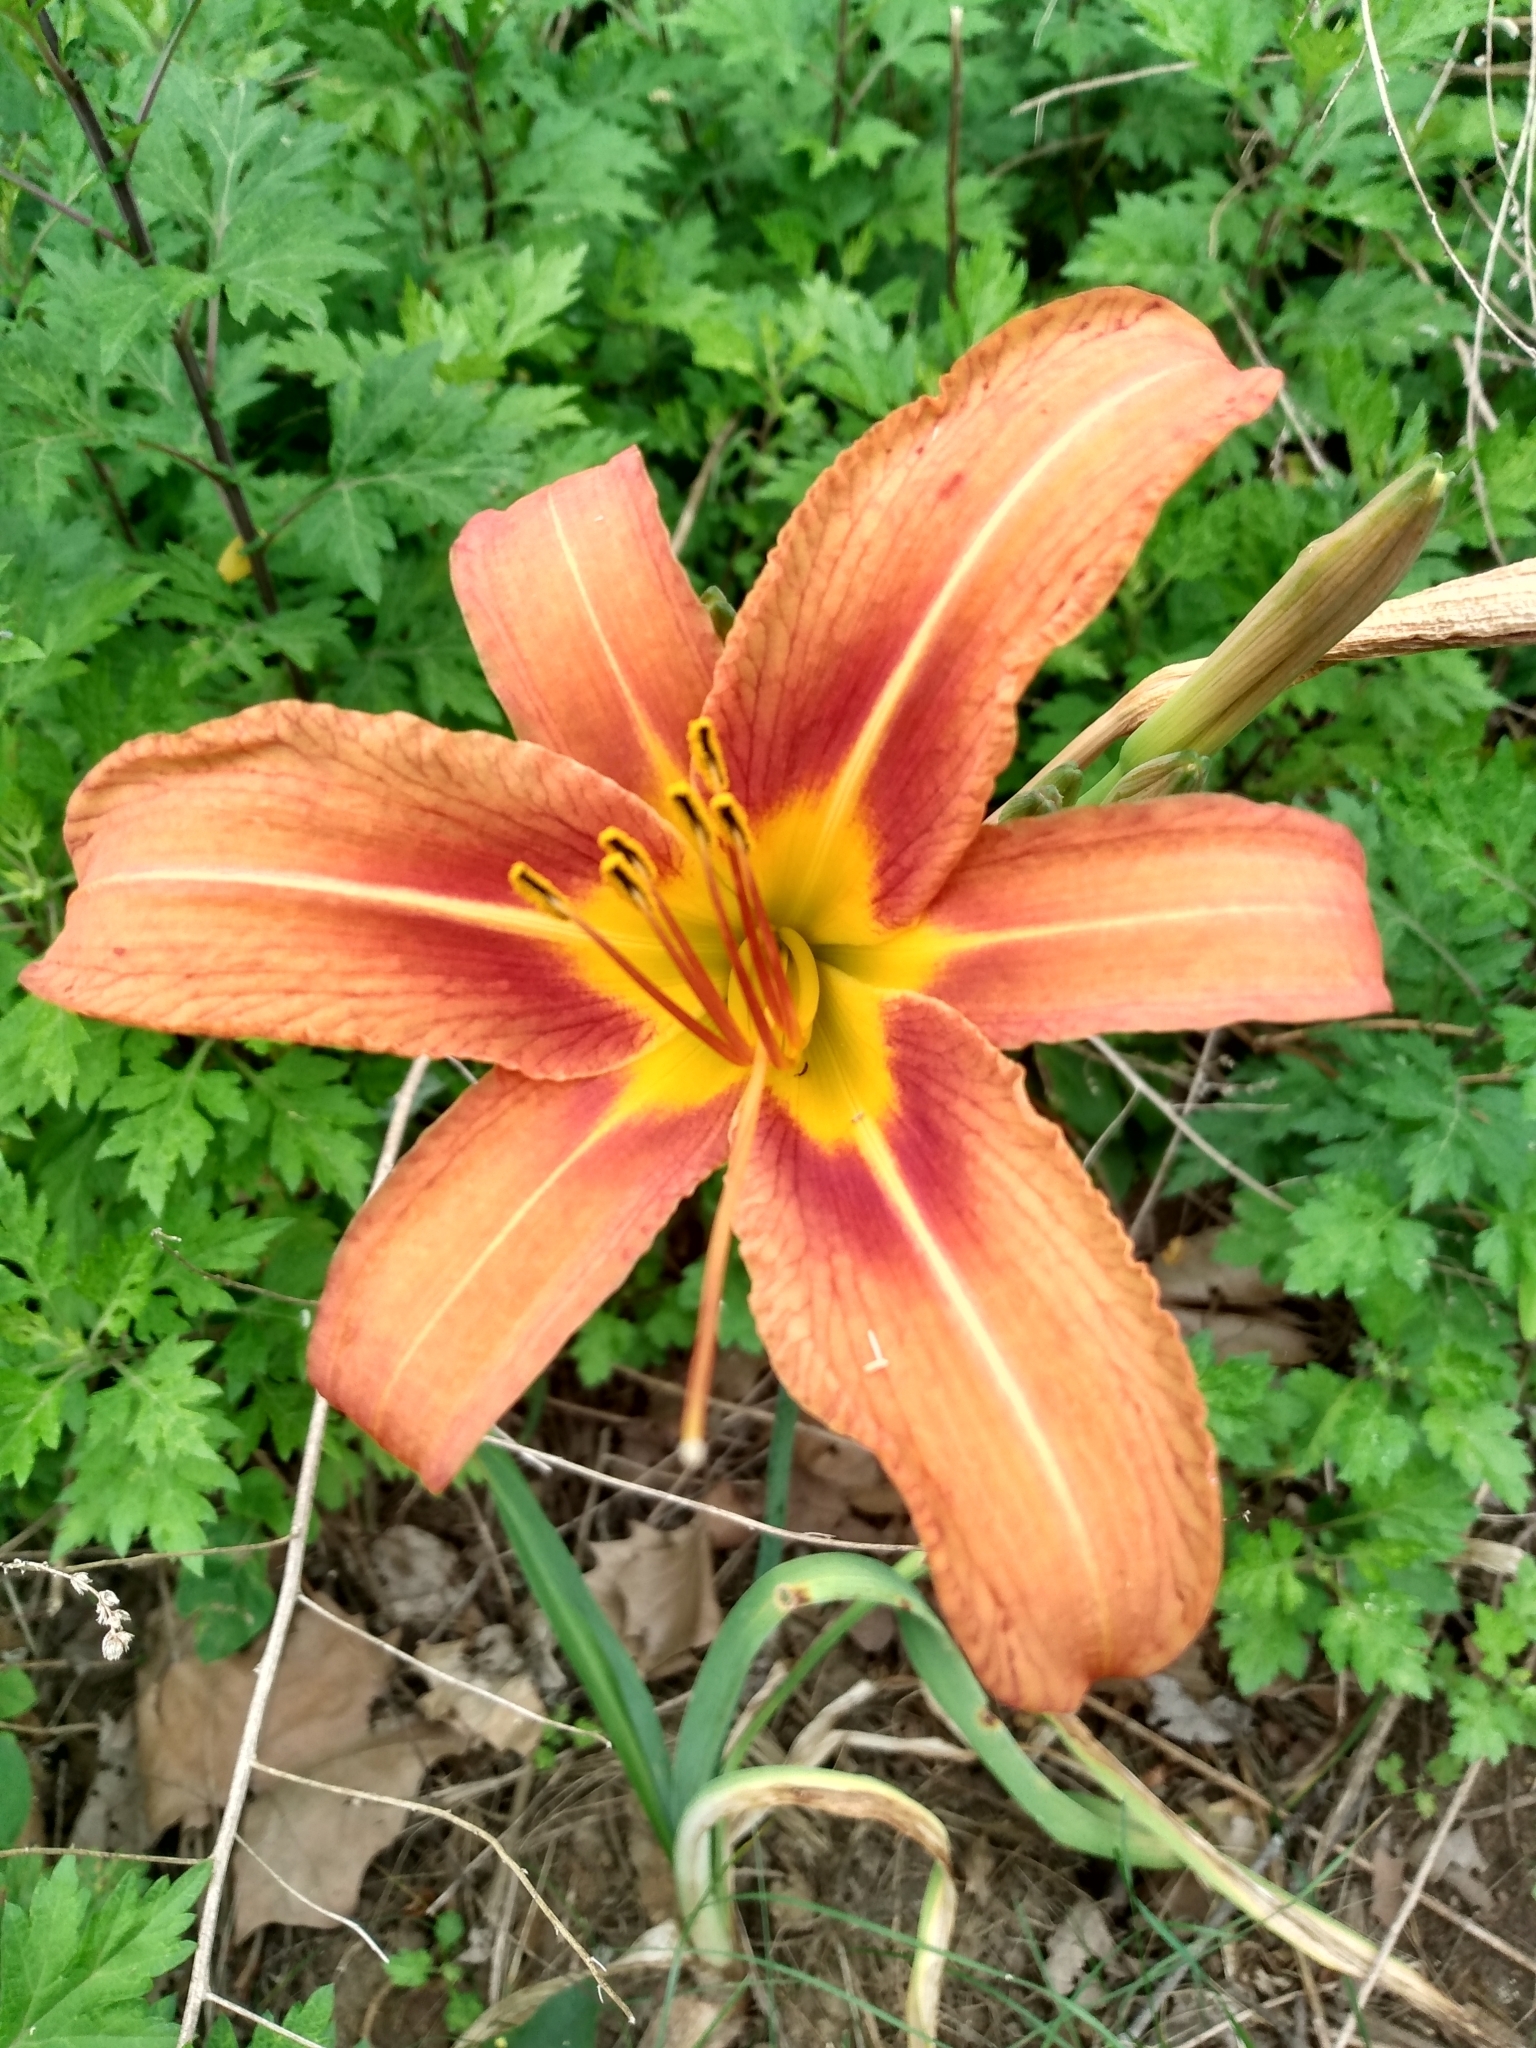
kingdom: Plantae
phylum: Tracheophyta
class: Liliopsida
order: Asparagales
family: Asphodelaceae
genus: Hemerocallis
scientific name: Hemerocallis fulva
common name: Orange day-lily
